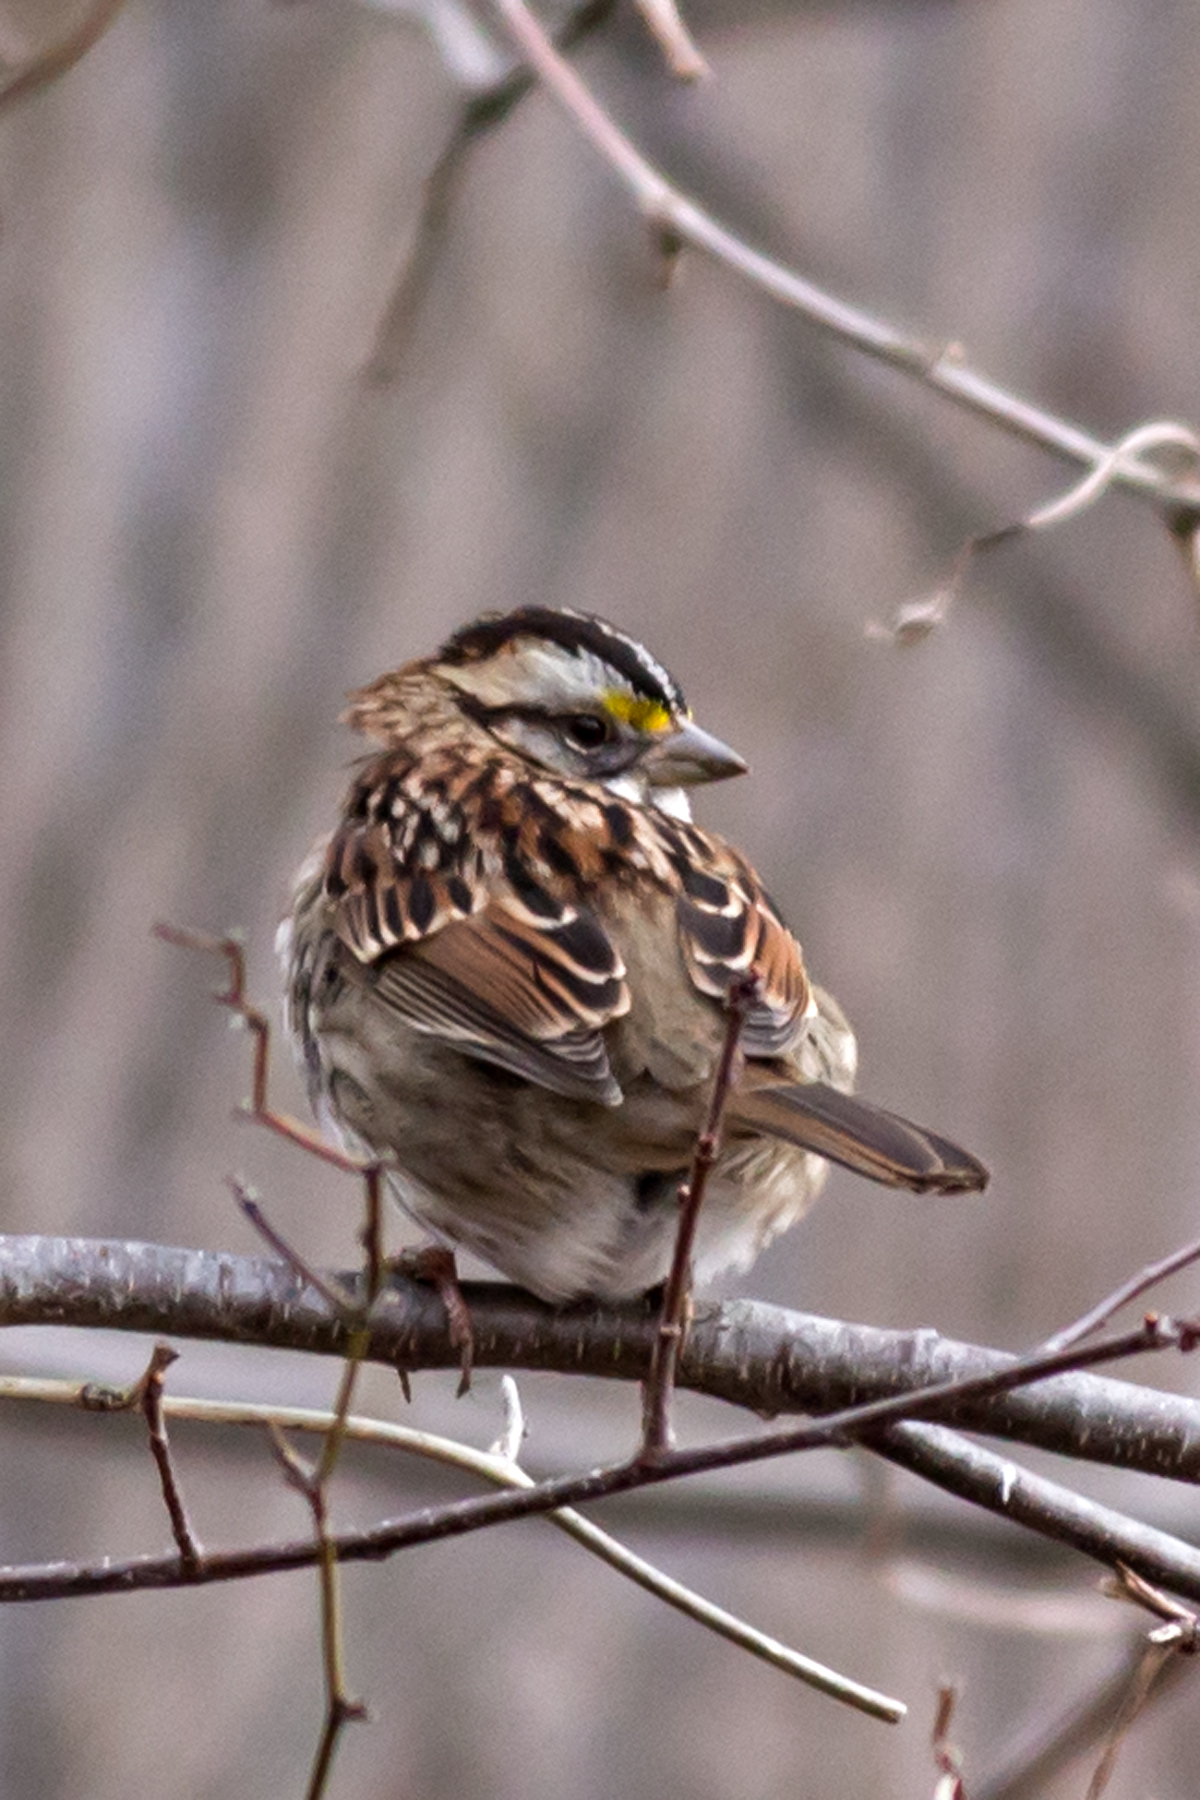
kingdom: Animalia
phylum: Chordata
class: Aves
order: Passeriformes
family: Passerellidae
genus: Zonotrichia
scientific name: Zonotrichia albicollis
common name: White-throated sparrow
